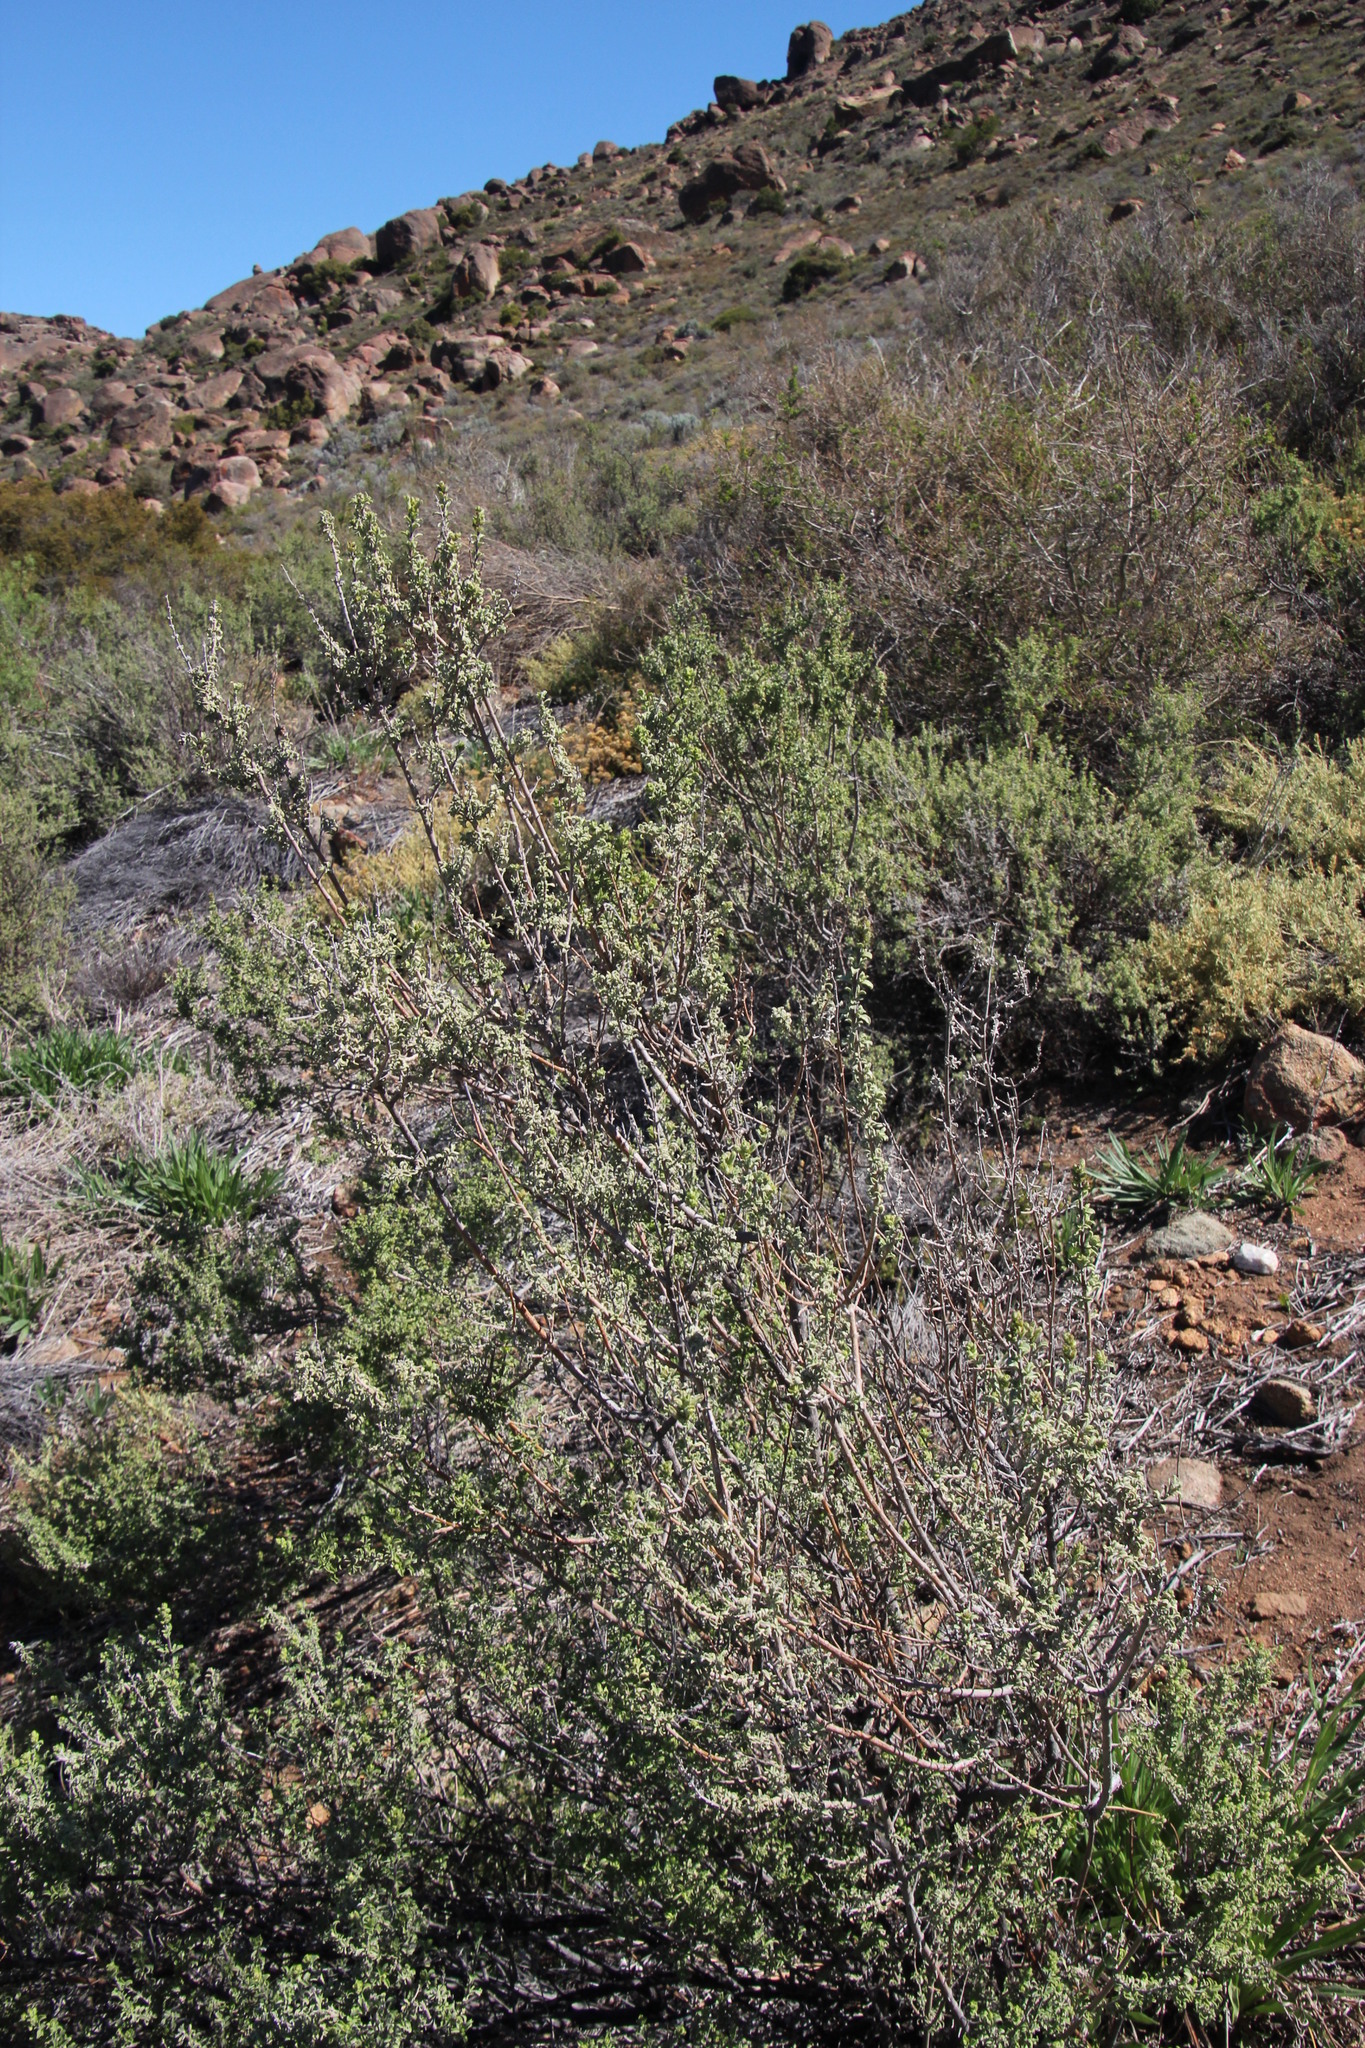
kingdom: Plantae
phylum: Tracheophyta
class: Magnoliopsida
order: Lamiales
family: Lamiaceae
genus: Salvia
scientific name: Salvia dentata
